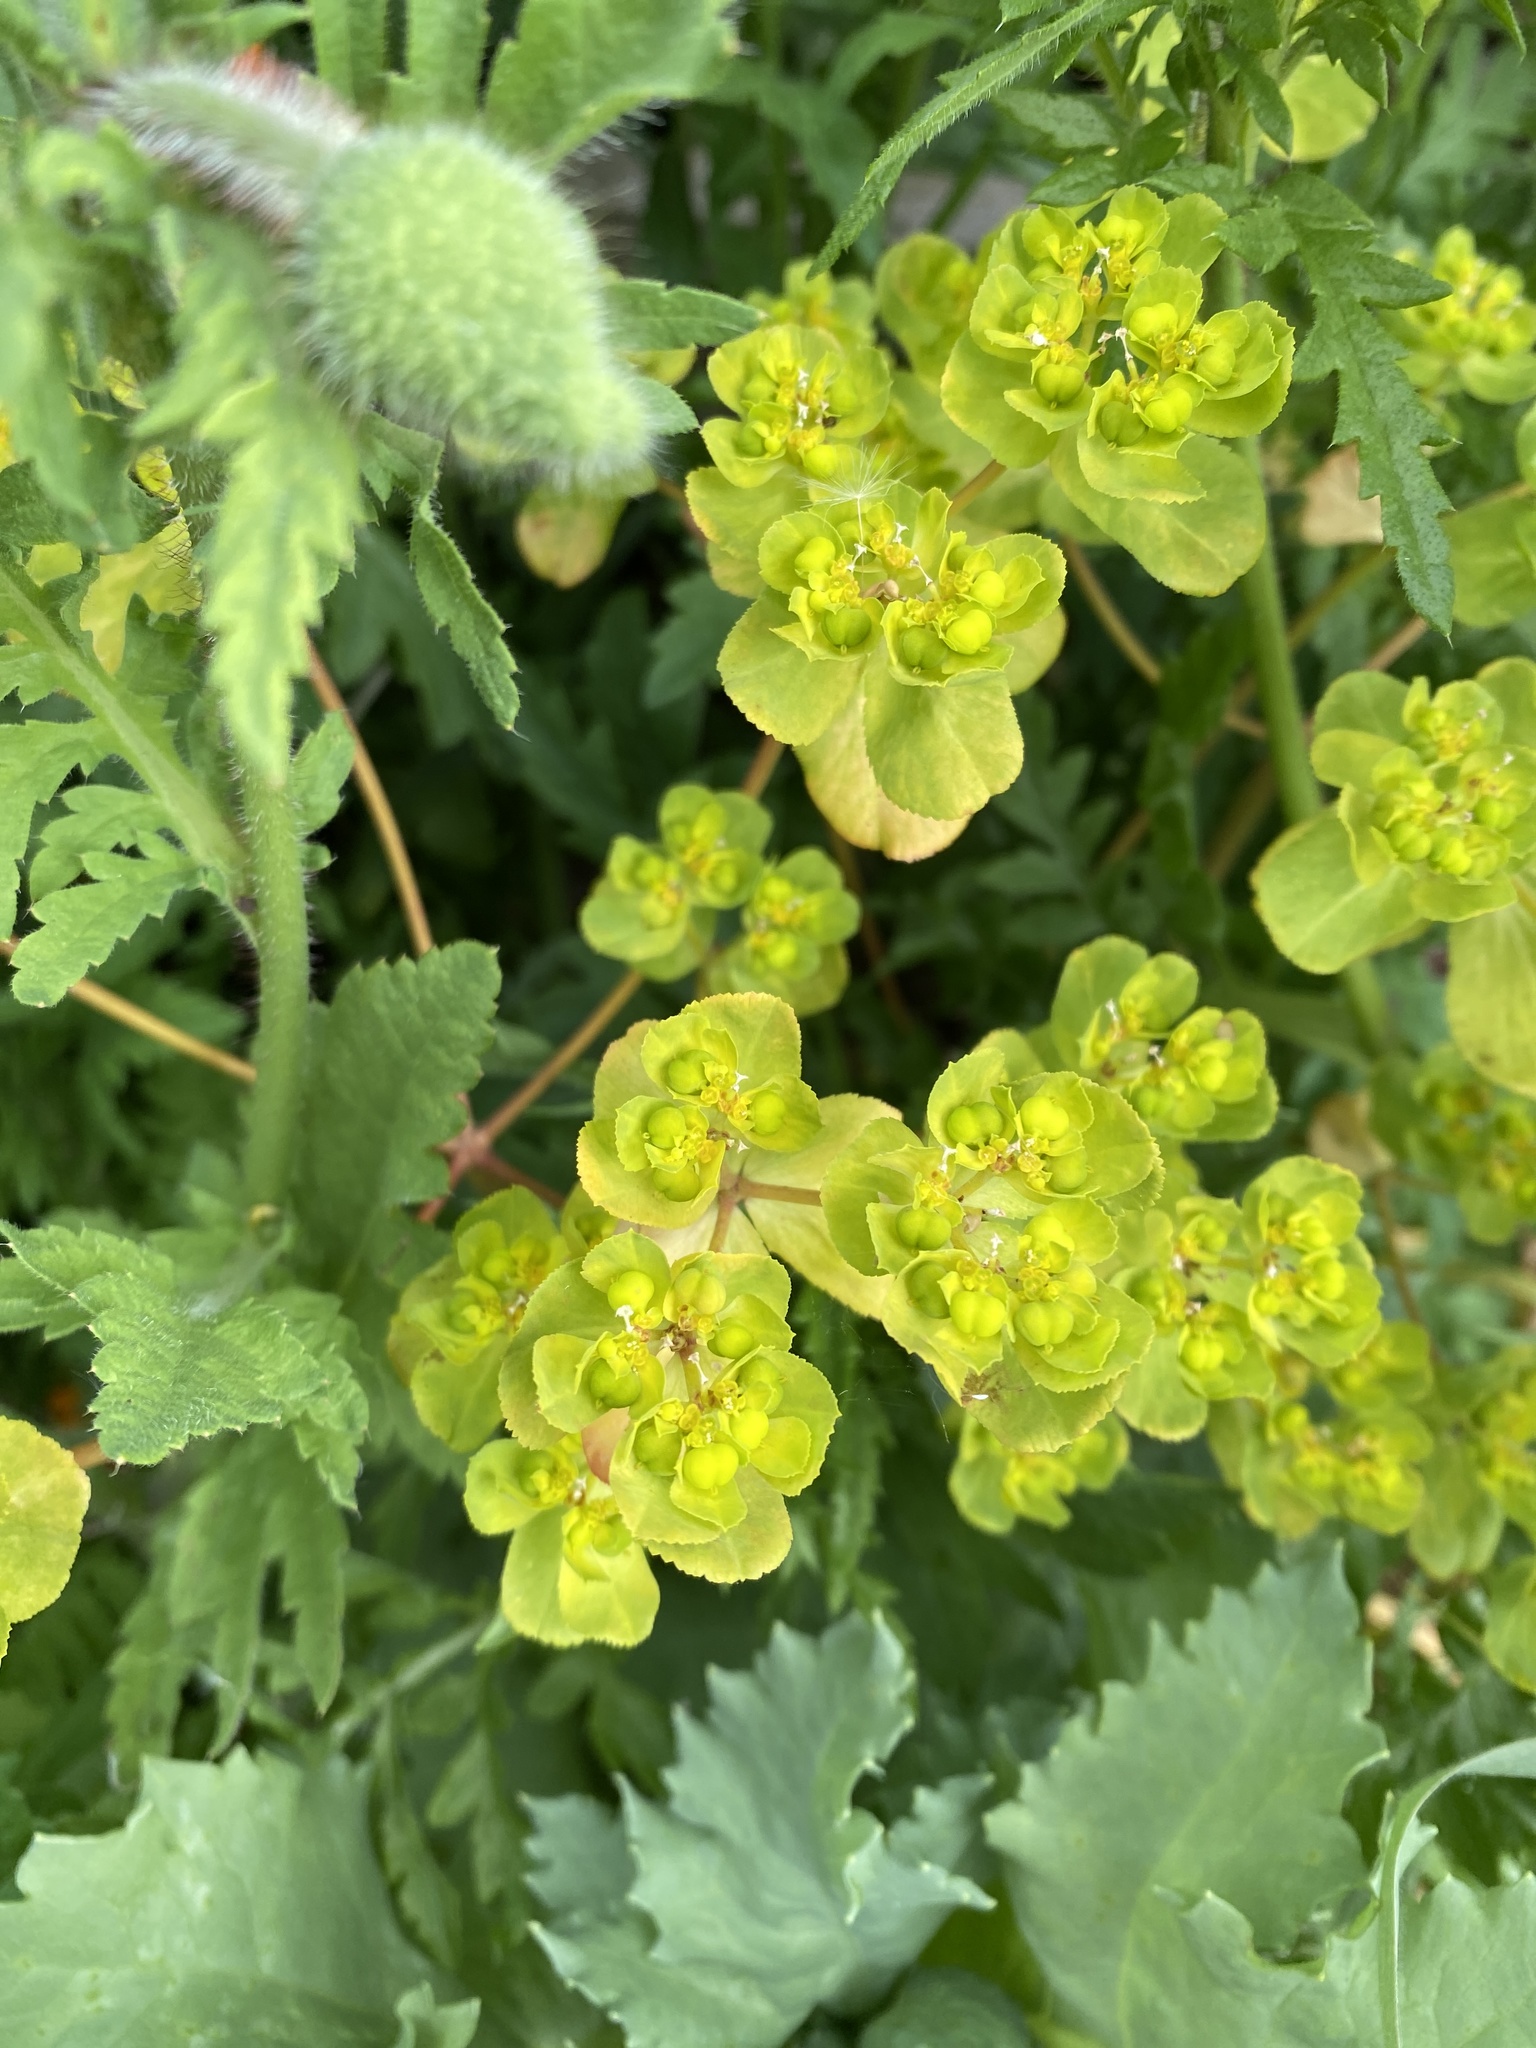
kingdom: Plantae
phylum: Tracheophyta
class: Magnoliopsida
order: Malpighiales
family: Euphorbiaceae
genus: Euphorbia
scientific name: Euphorbia helioscopia
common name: Sun spurge
